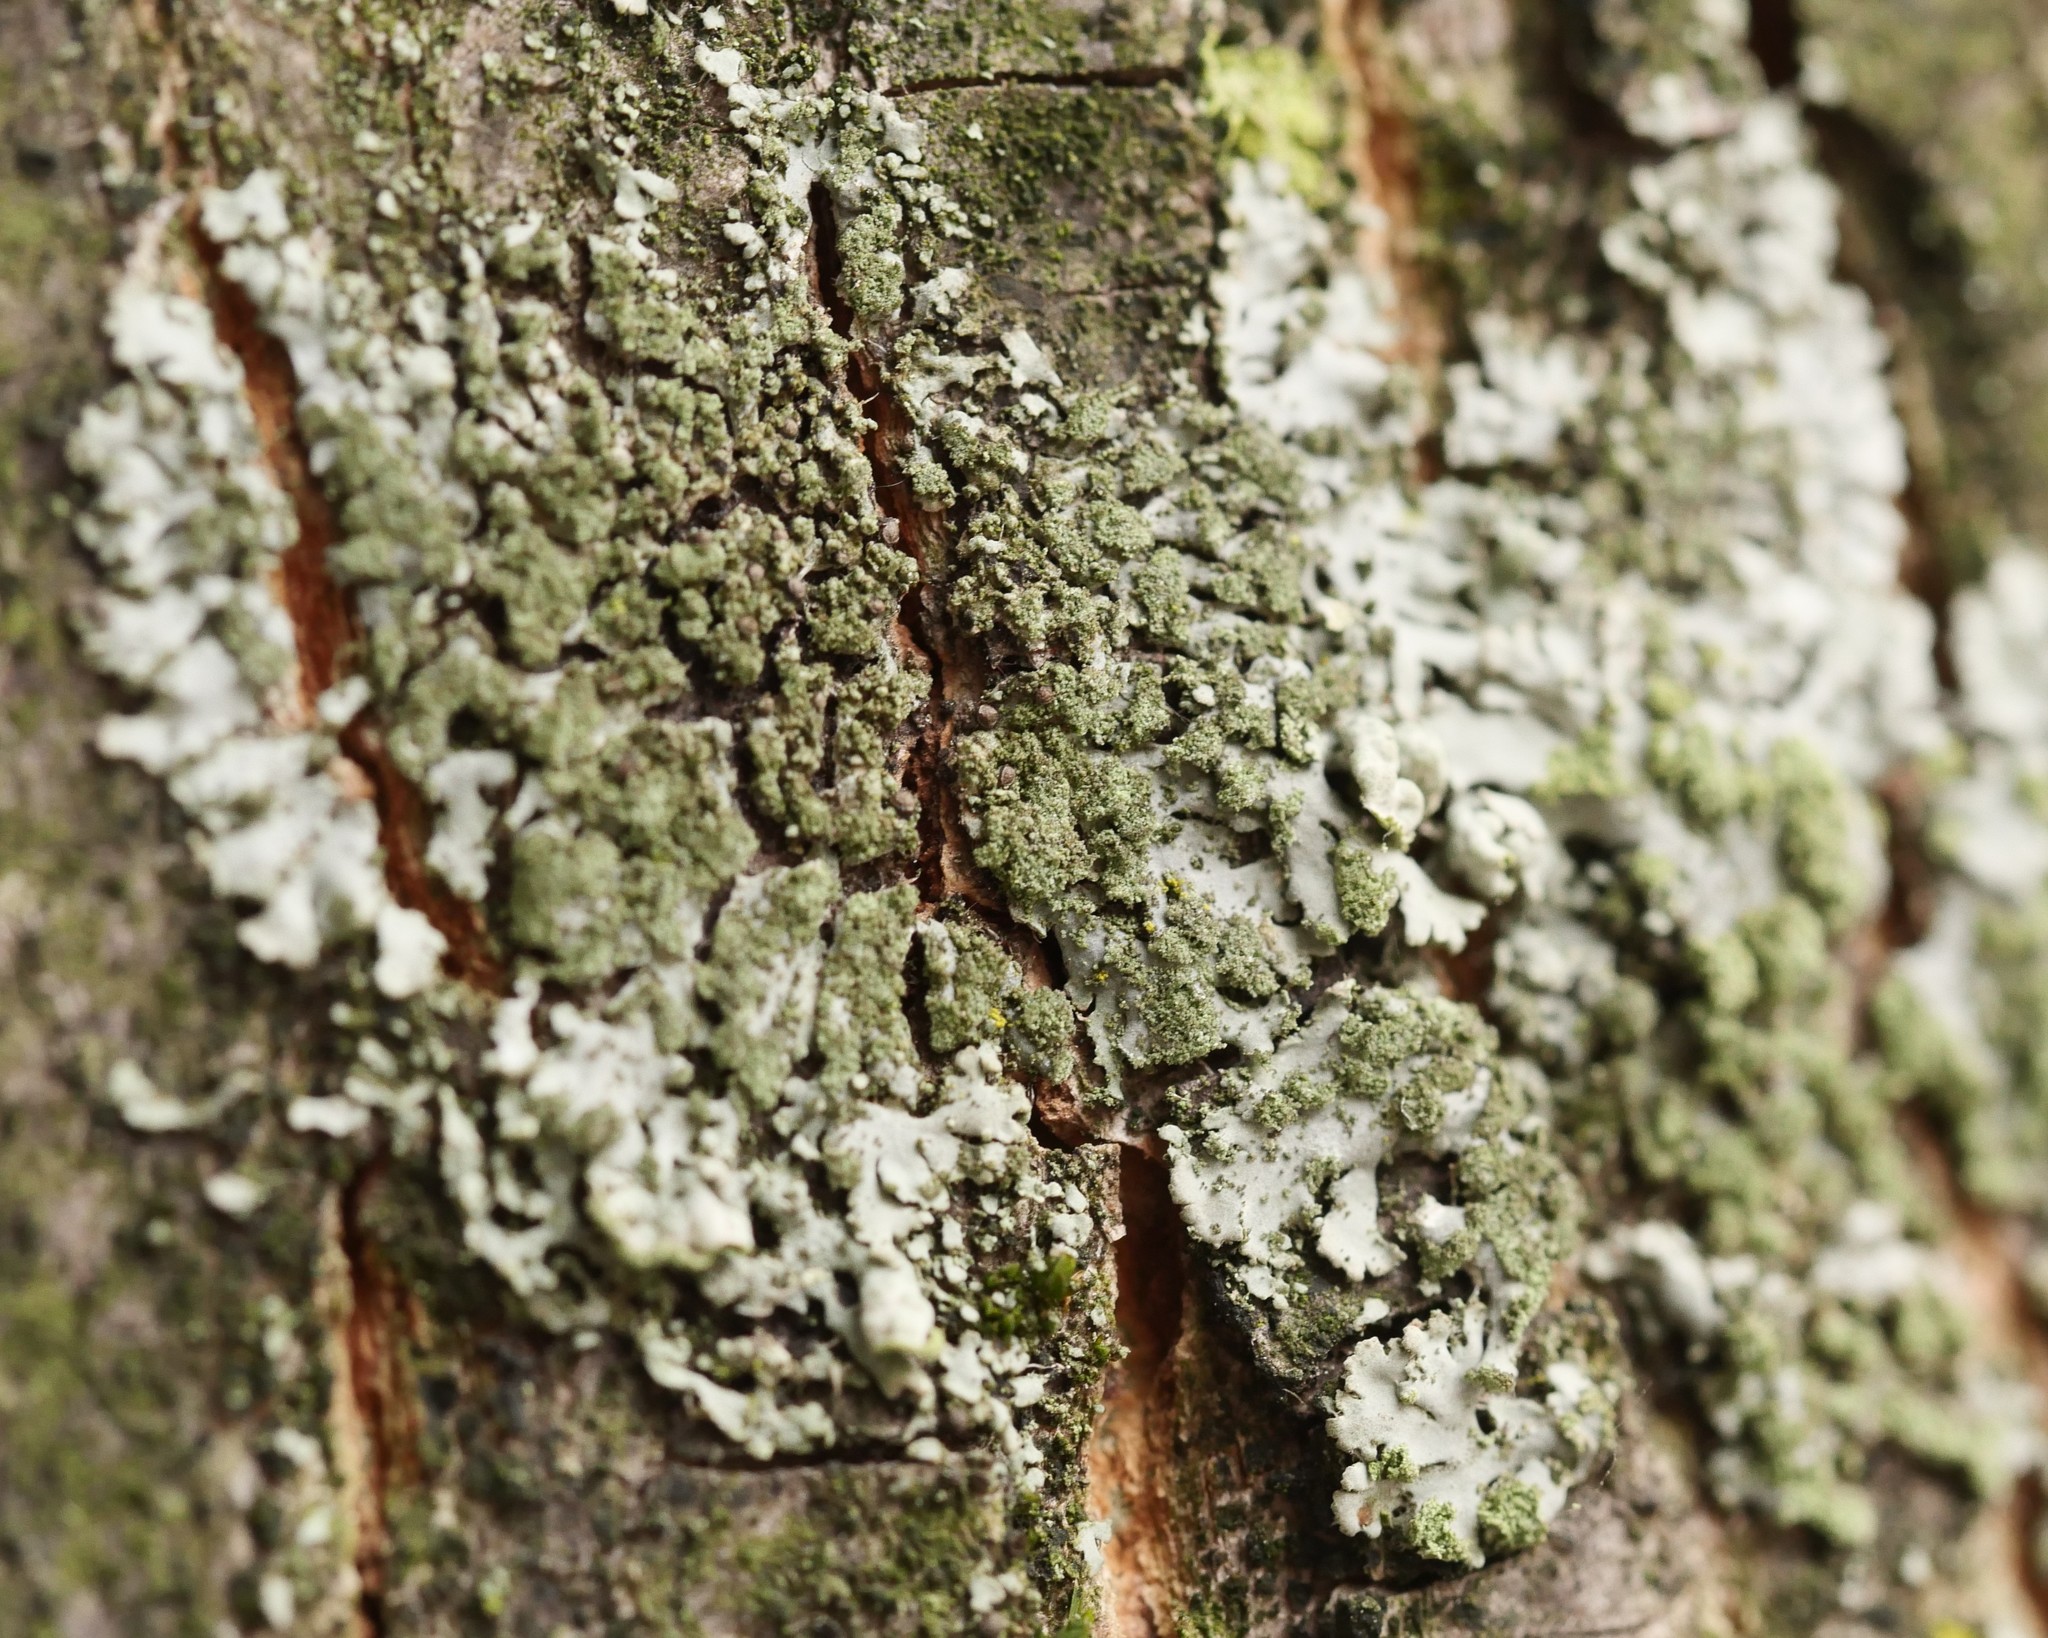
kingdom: Fungi
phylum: Ascomycota
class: Lecanoromycetes
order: Caliciales
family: Physciaceae
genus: Phaeophyscia
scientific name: Phaeophyscia orbicularis
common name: Mealy shadow lichen
